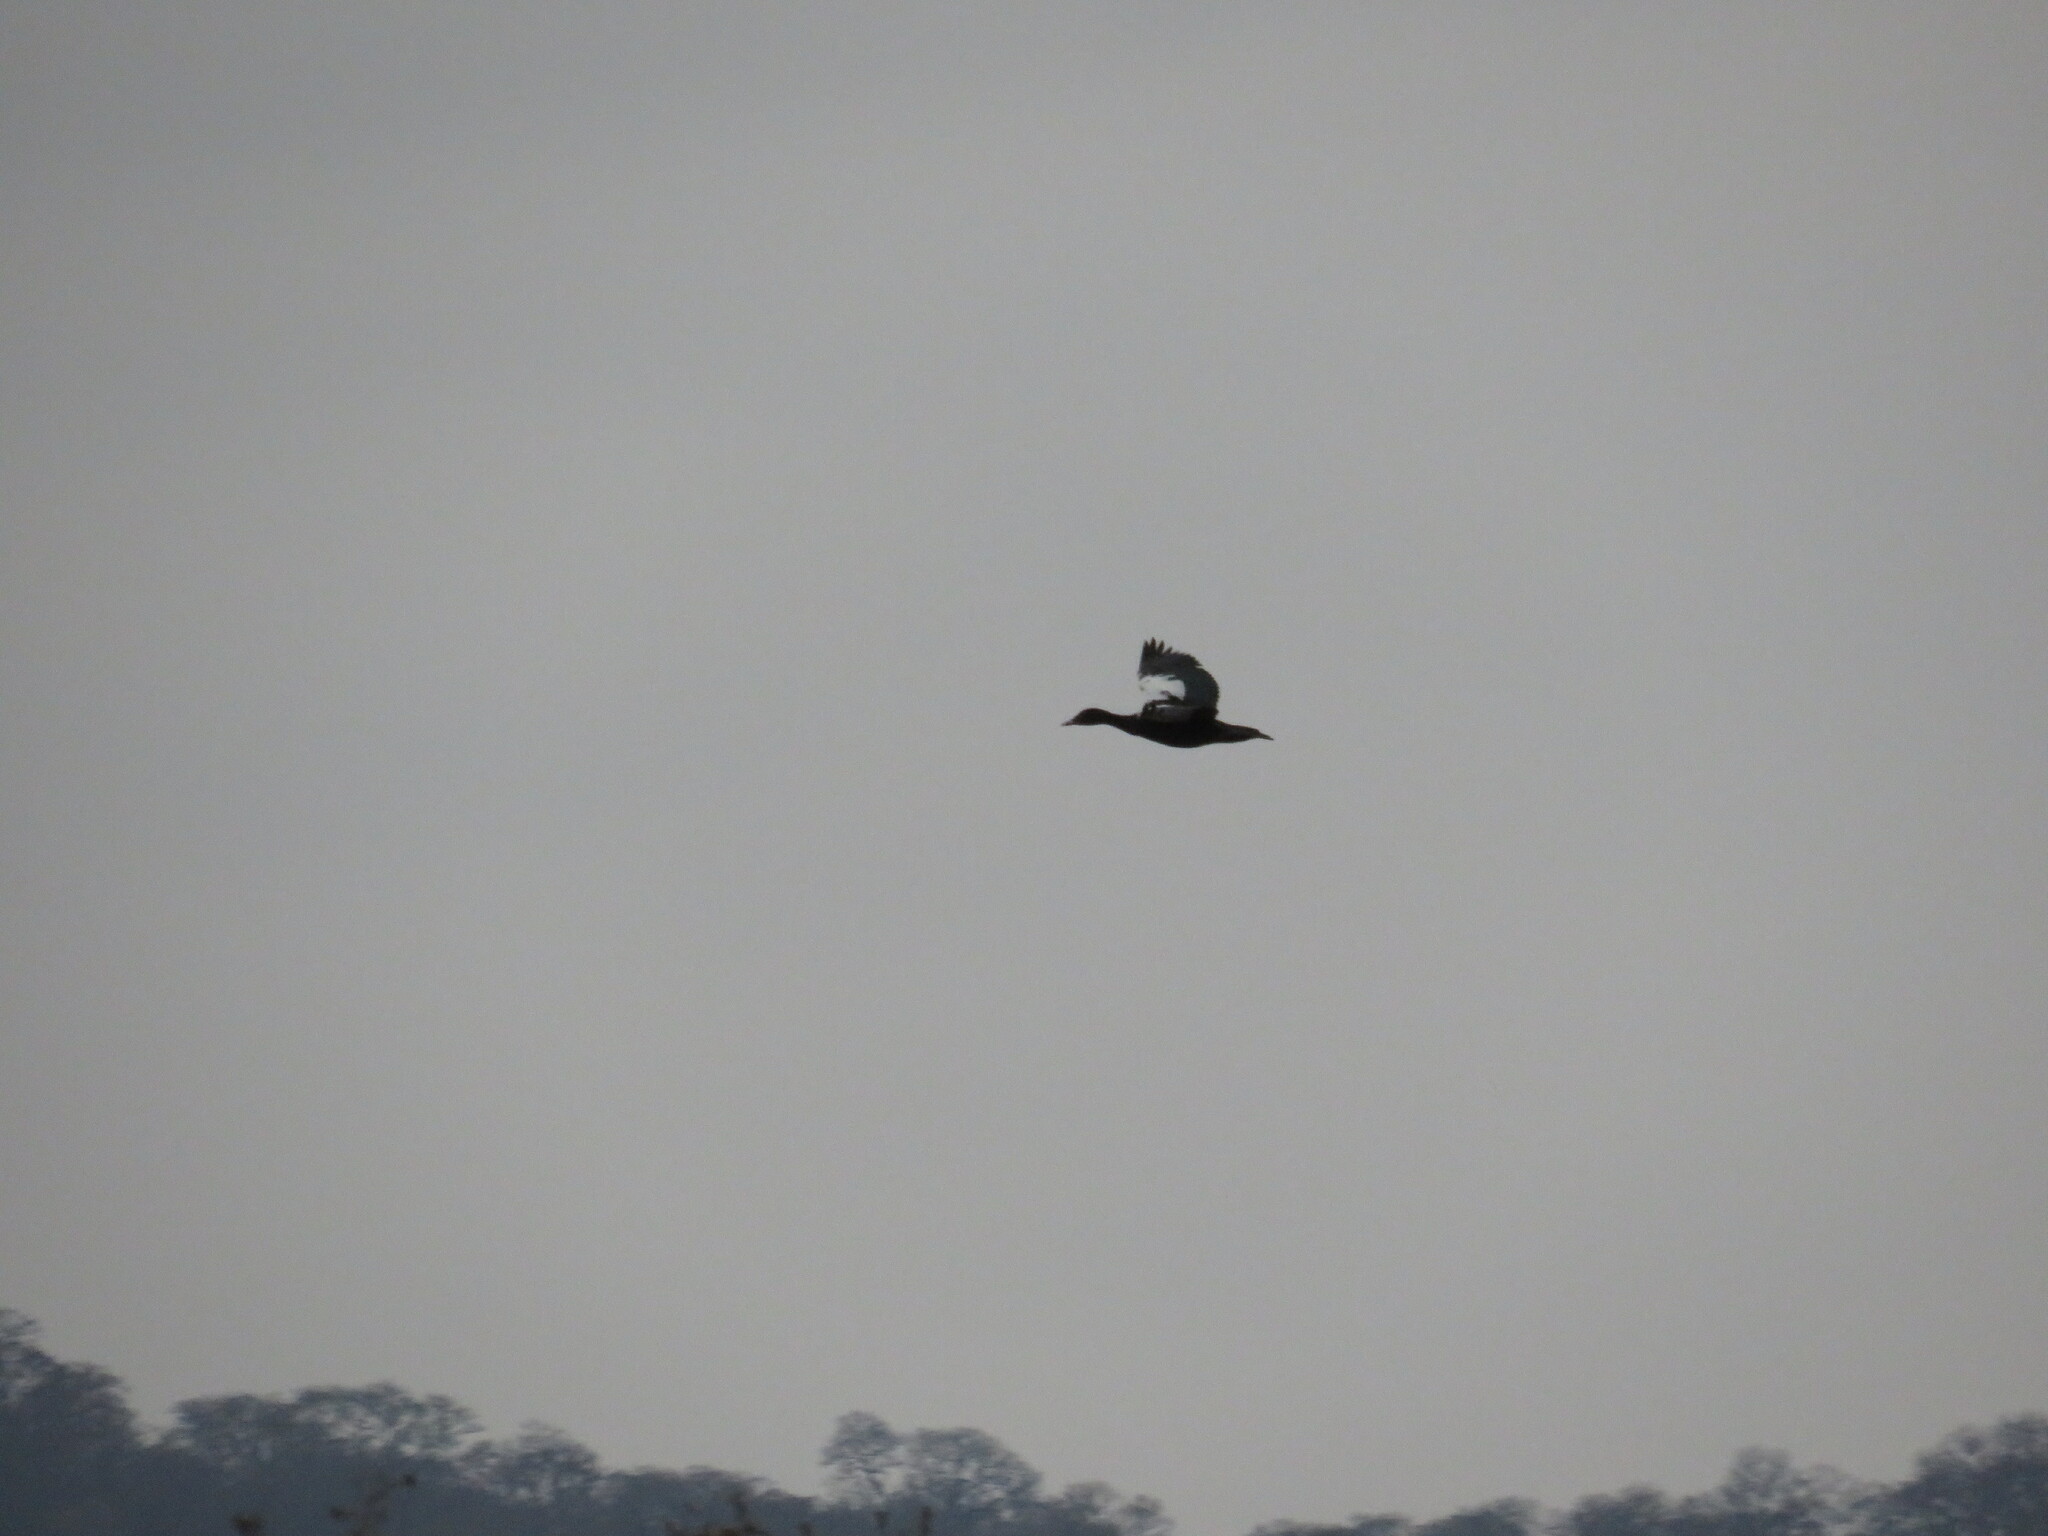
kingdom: Animalia
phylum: Chordata
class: Aves
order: Anseriformes
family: Anatidae
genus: Cairina
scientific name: Cairina moschata
